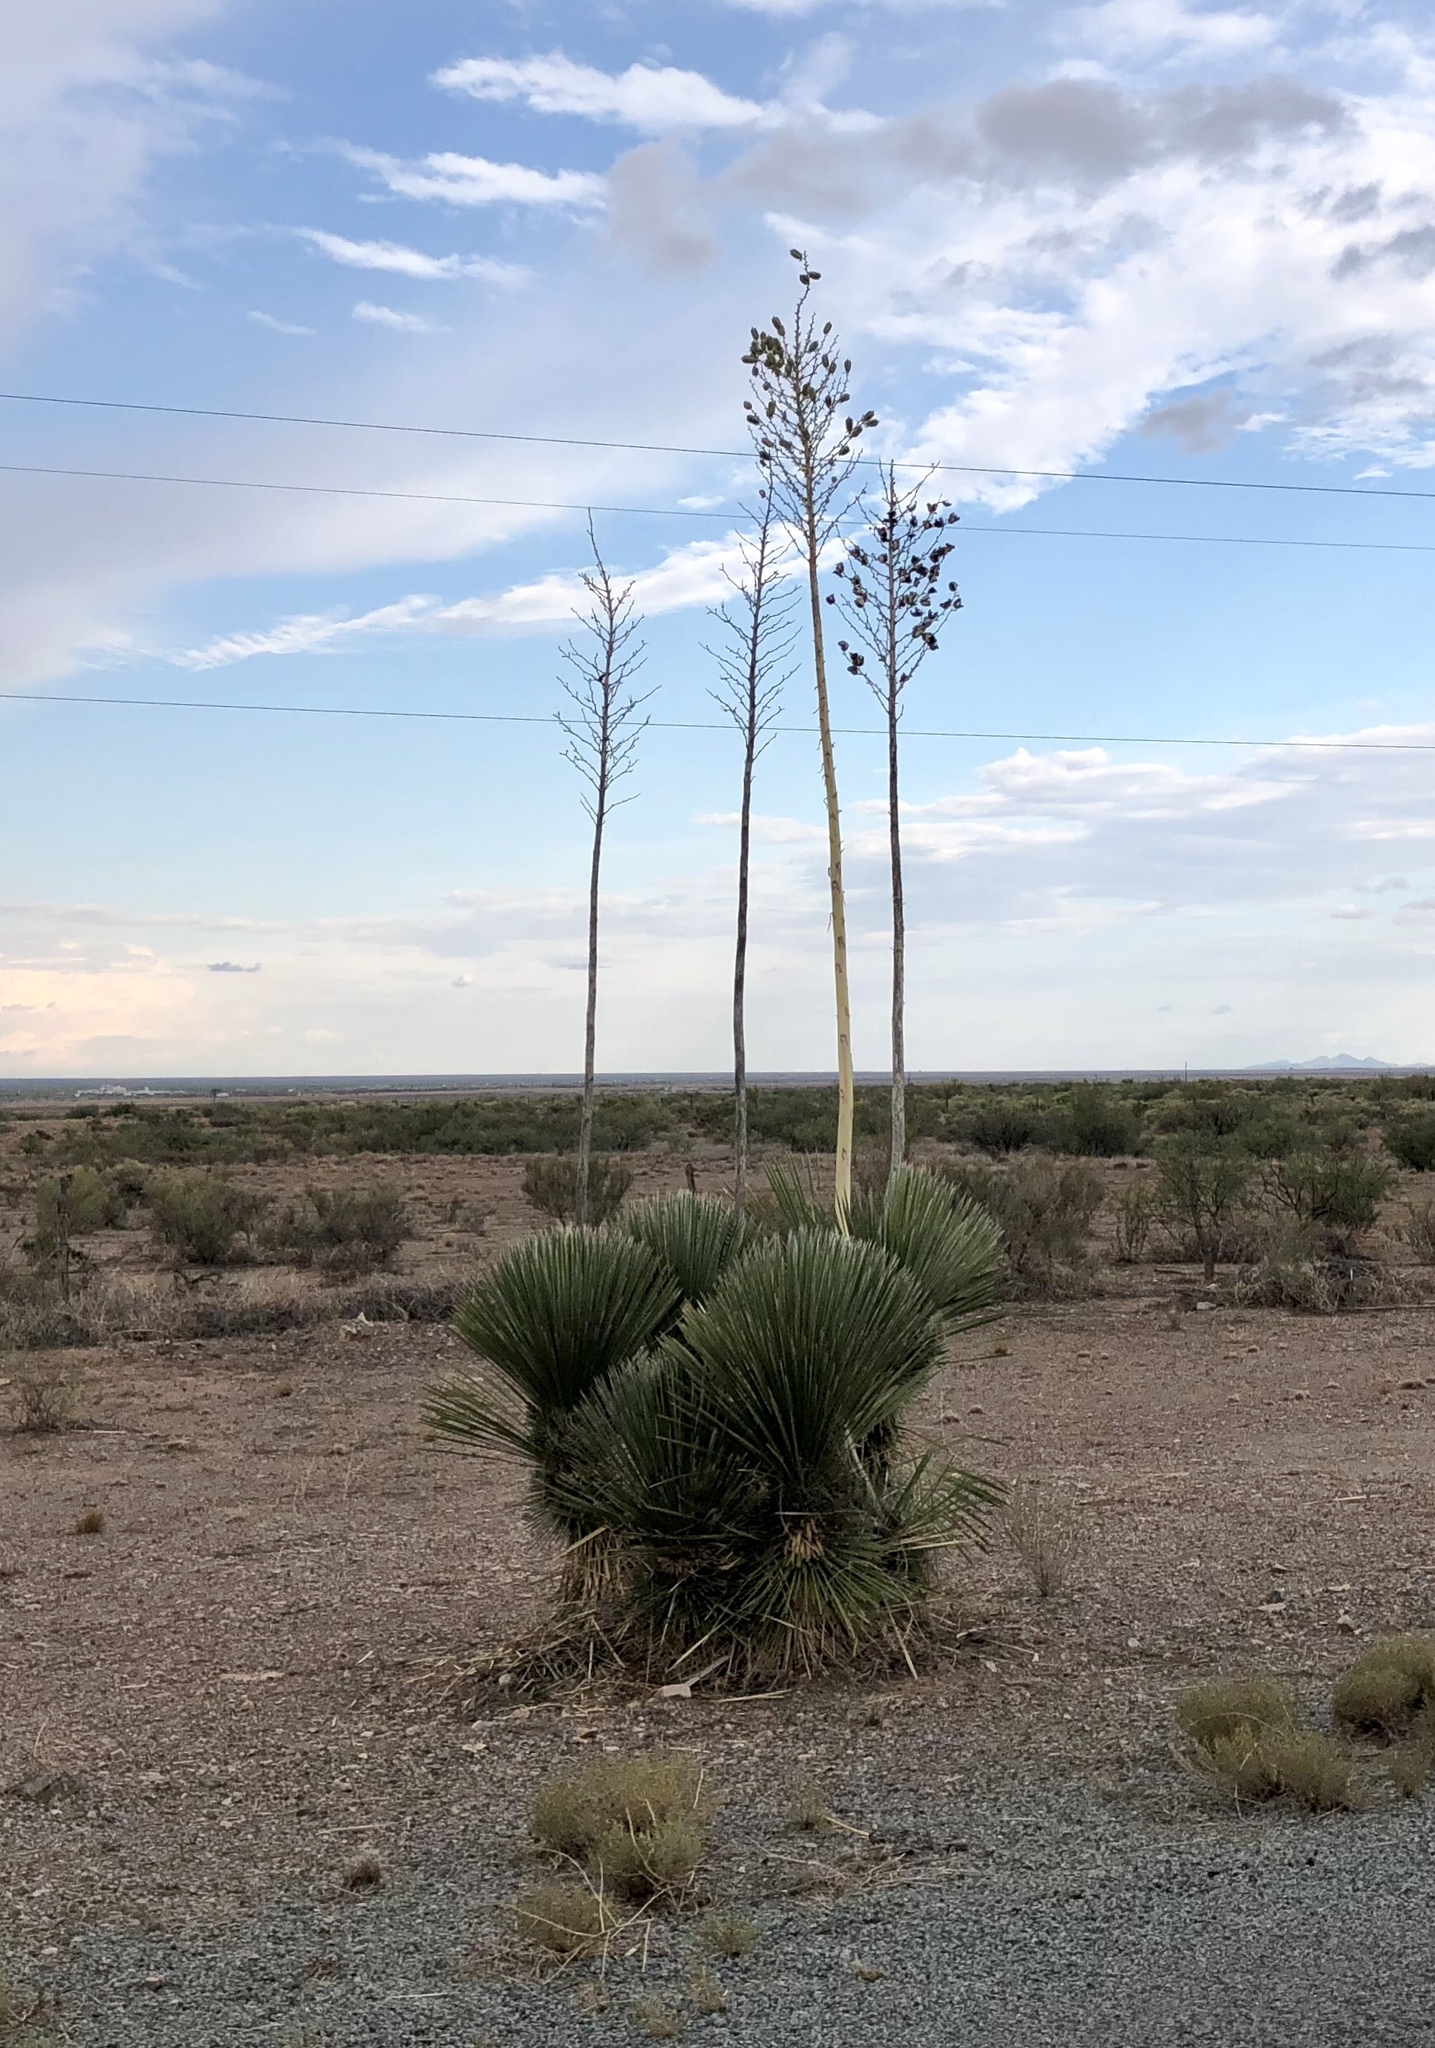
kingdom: Plantae
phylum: Tracheophyta
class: Liliopsida
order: Asparagales
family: Asparagaceae
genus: Yucca
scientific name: Yucca elata
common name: Palmella
